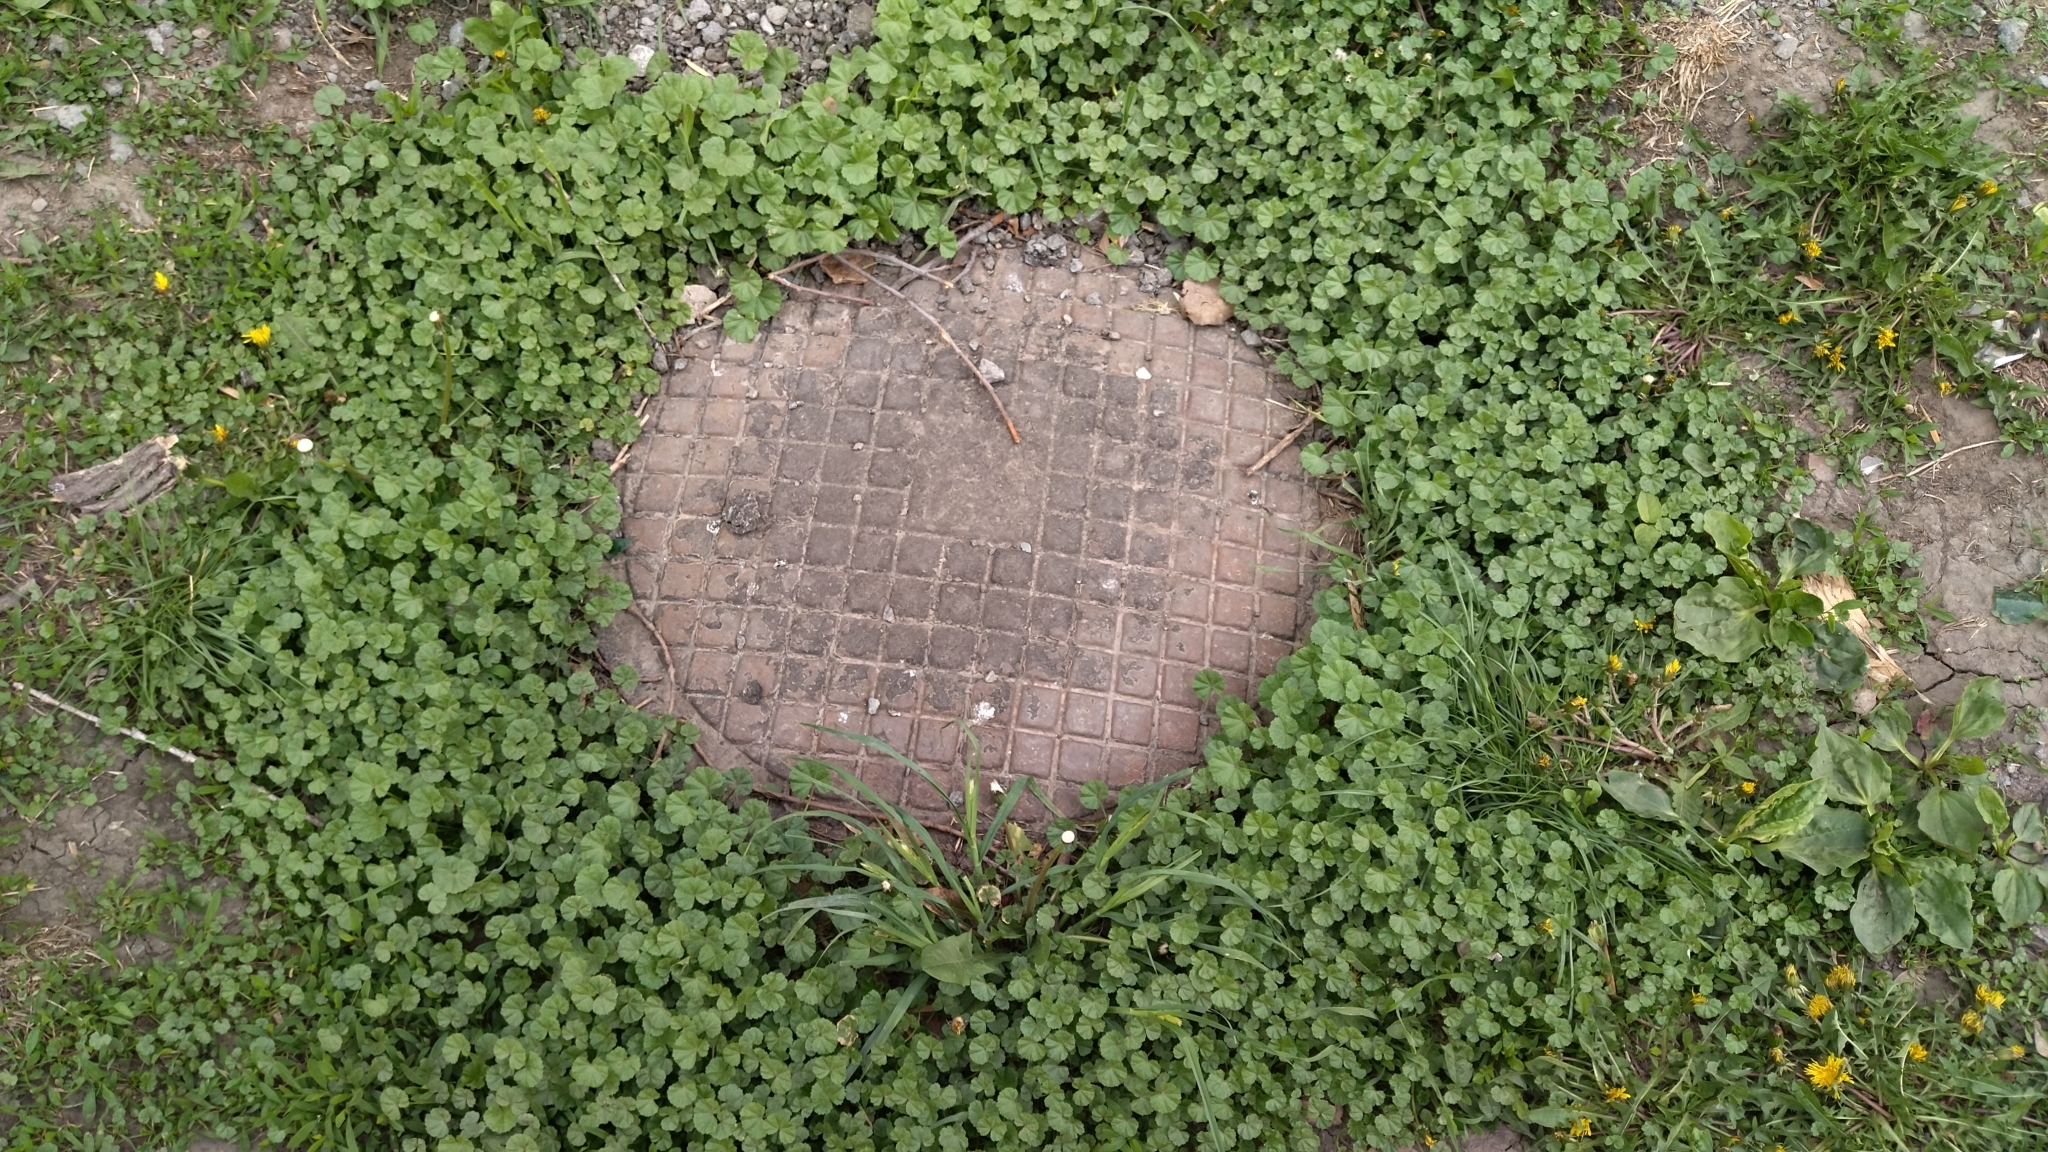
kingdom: Plantae
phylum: Tracheophyta
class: Magnoliopsida
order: Malvales
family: Malvaceae
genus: Malva
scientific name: Malva pusilla
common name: Small mallow
